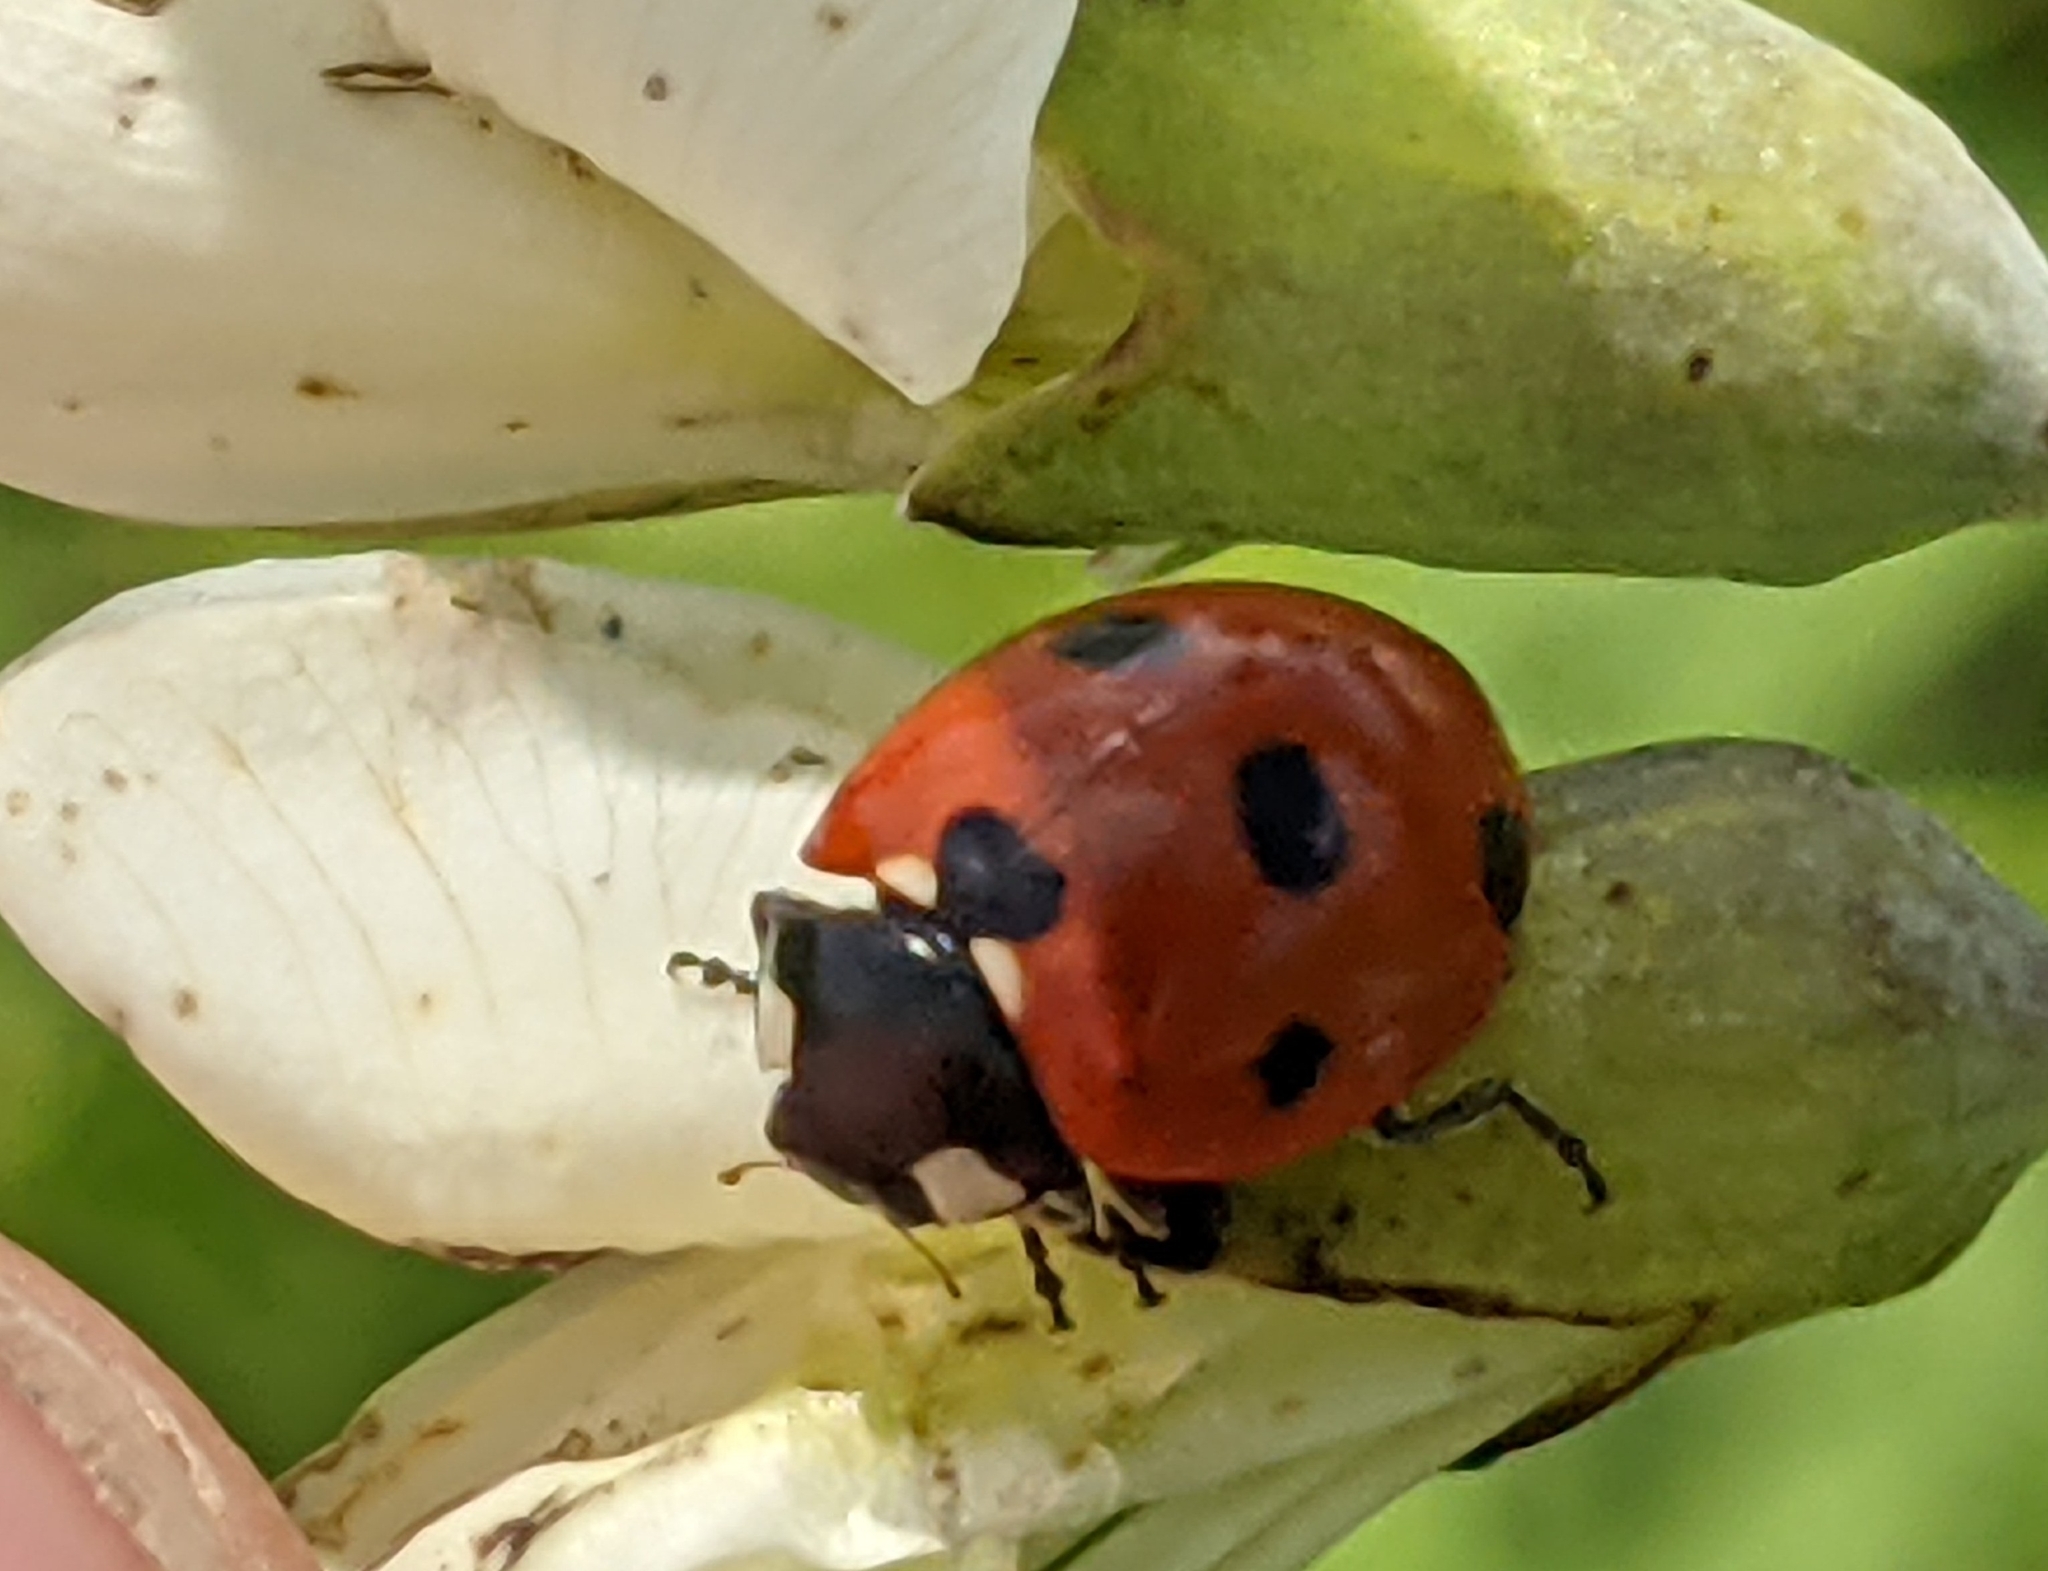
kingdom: Animalia
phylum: Arthropoda
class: Insecta
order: Coleoptera
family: Coccinellidae
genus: Coccinella
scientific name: Coccinella septempunctata
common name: Sevenspotted lady beetle
